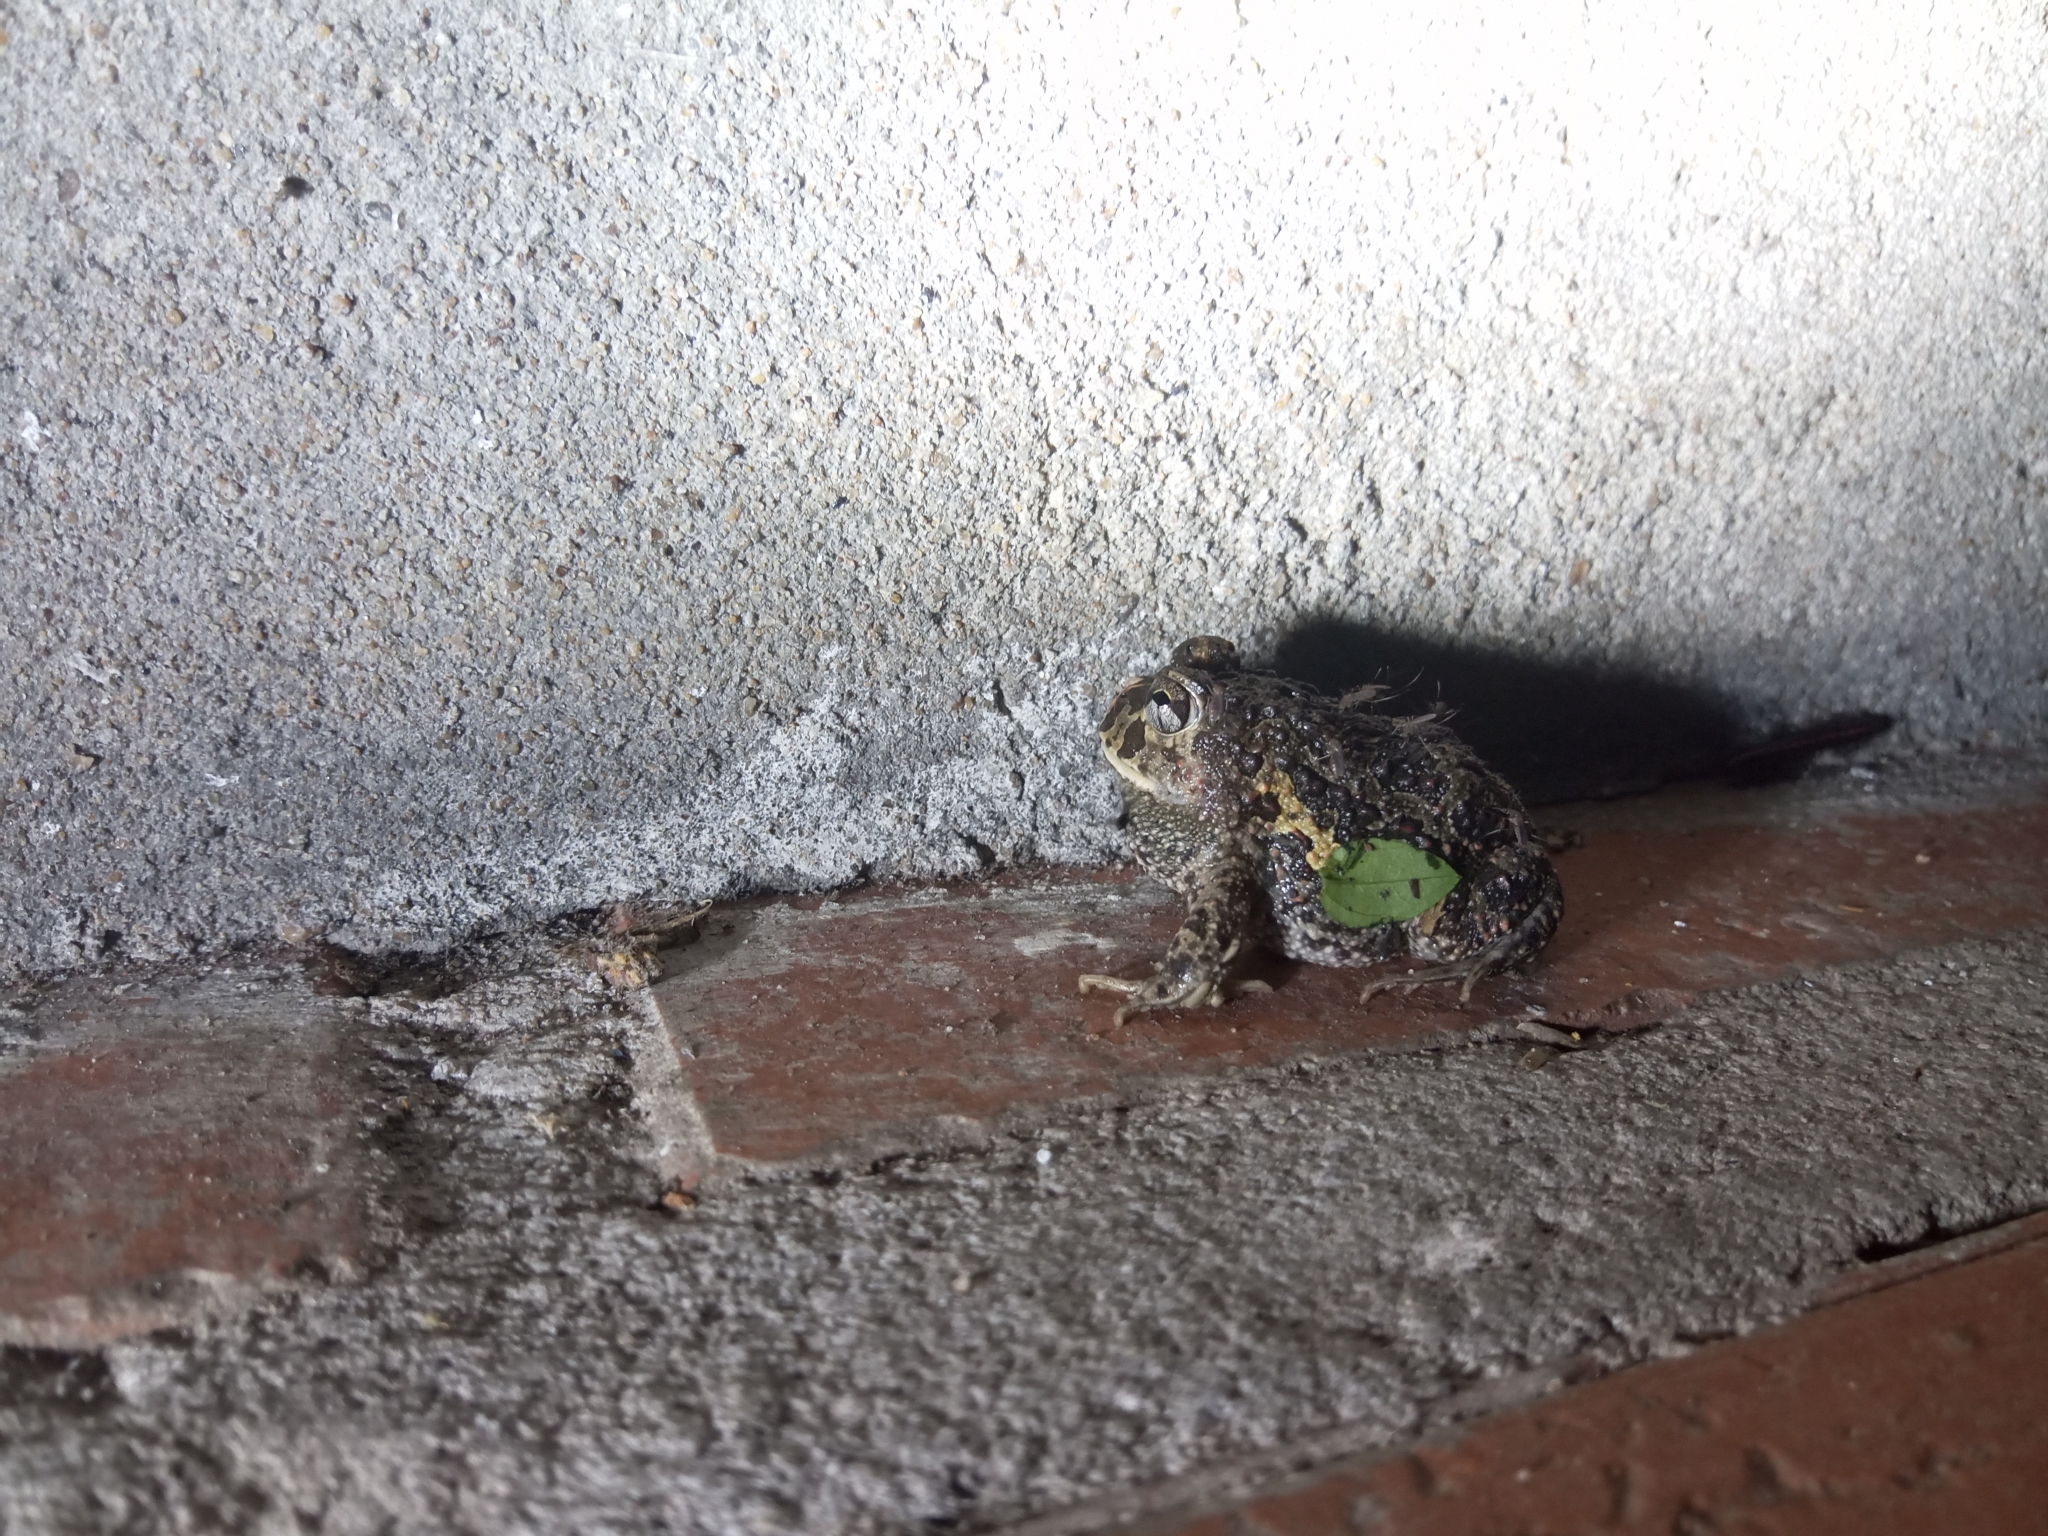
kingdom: Animalia
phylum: Chordata
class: Amphibia
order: Anura
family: Odontophrynidae
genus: Odontophrynus
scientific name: Odontophrynus
